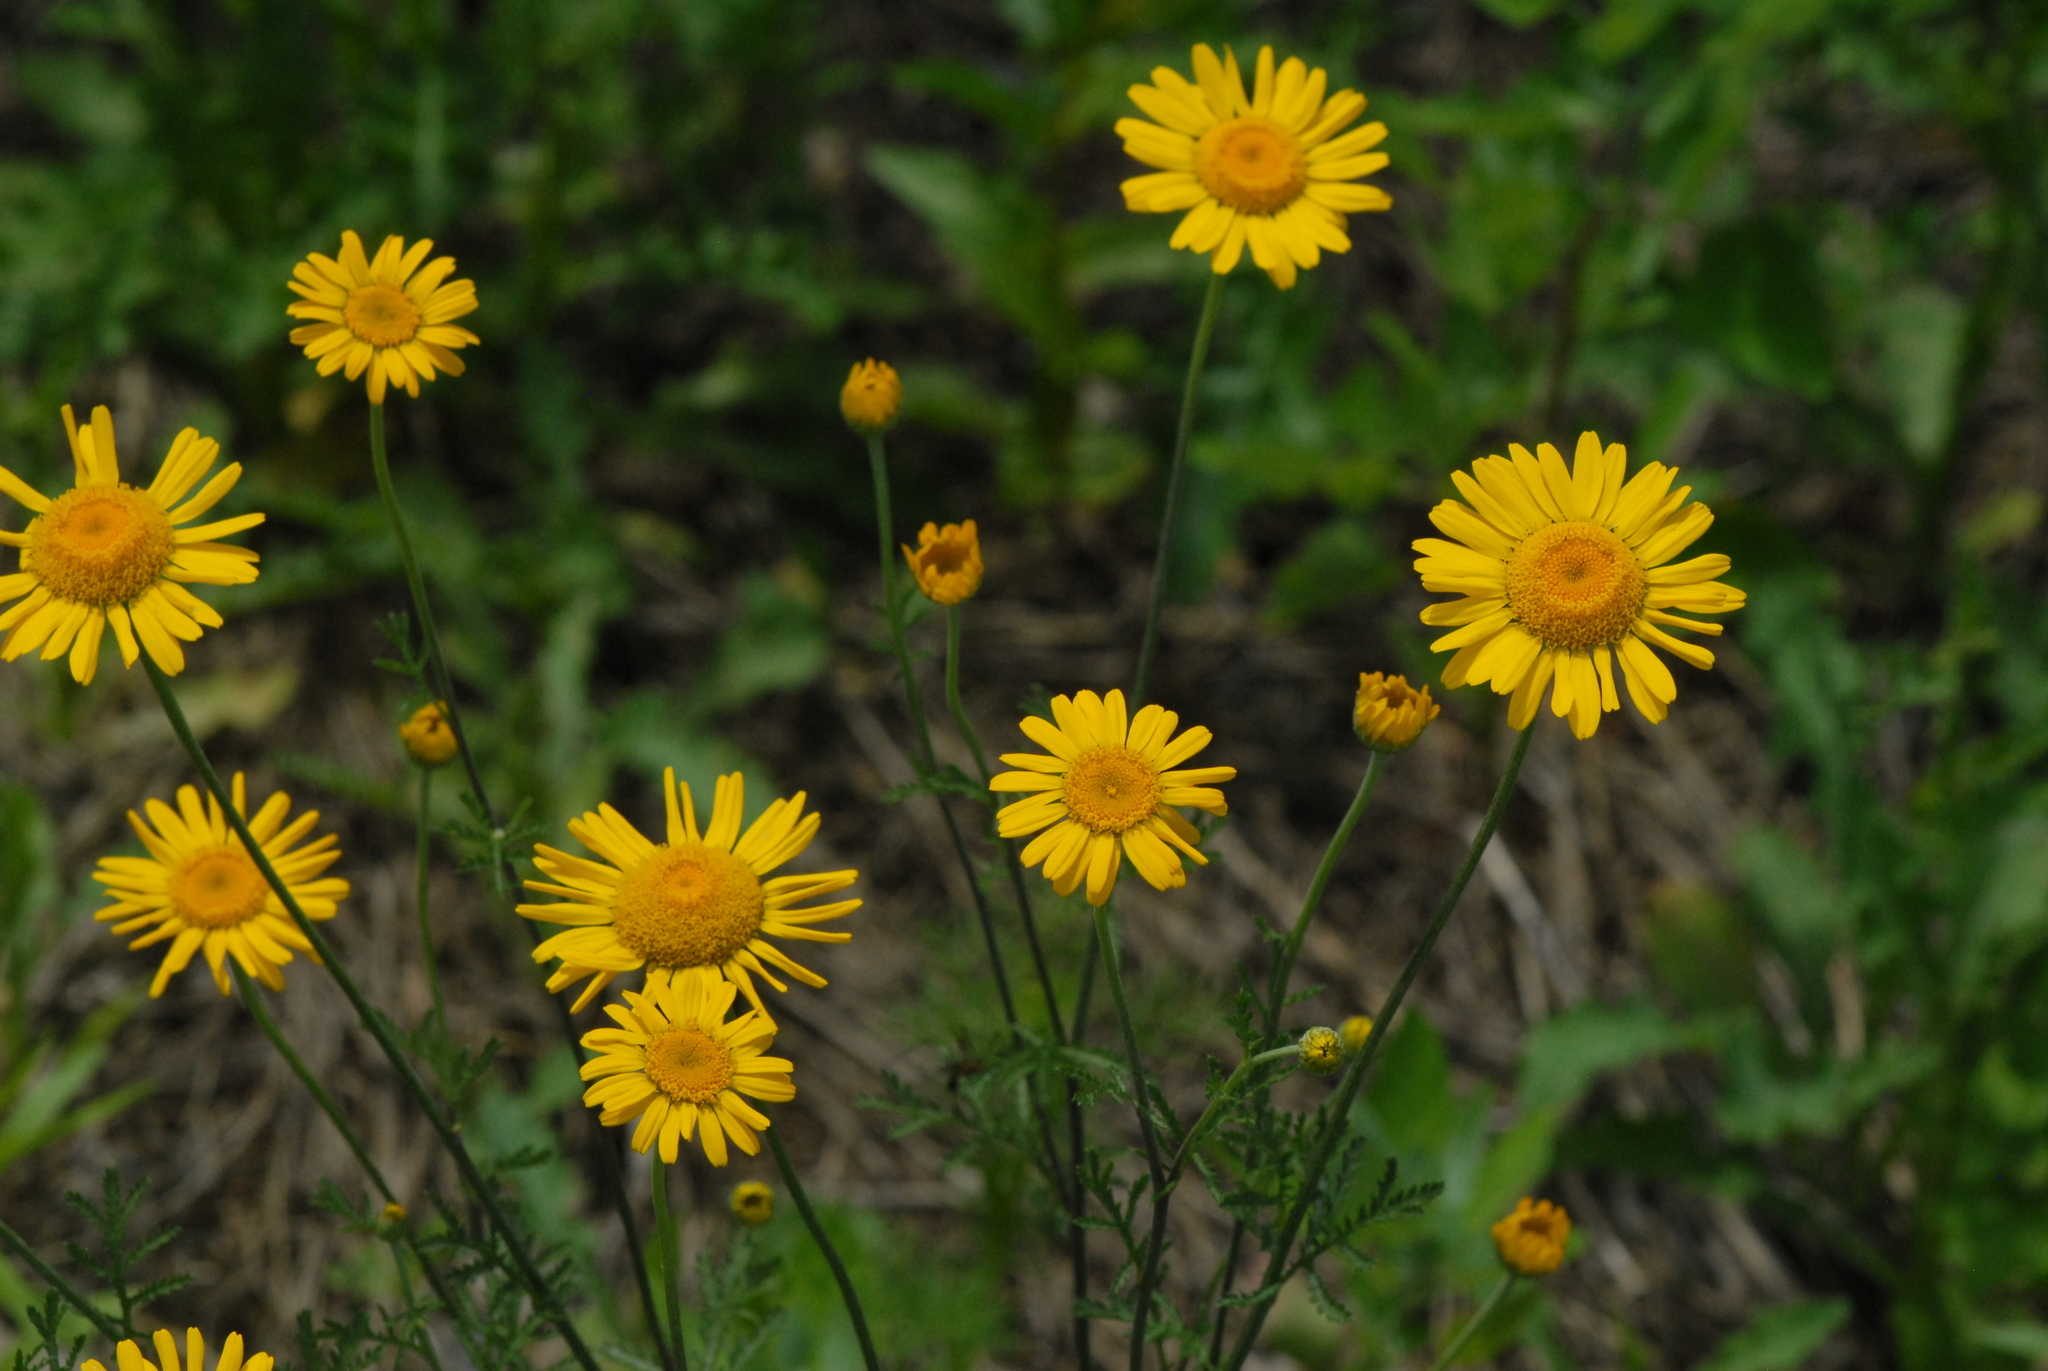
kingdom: Plantae
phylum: Tracheophyta
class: Magnoliopsida
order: Asterales
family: Asteraceae
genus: Cota
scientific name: Cota tinctoria
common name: Golden chamomile
